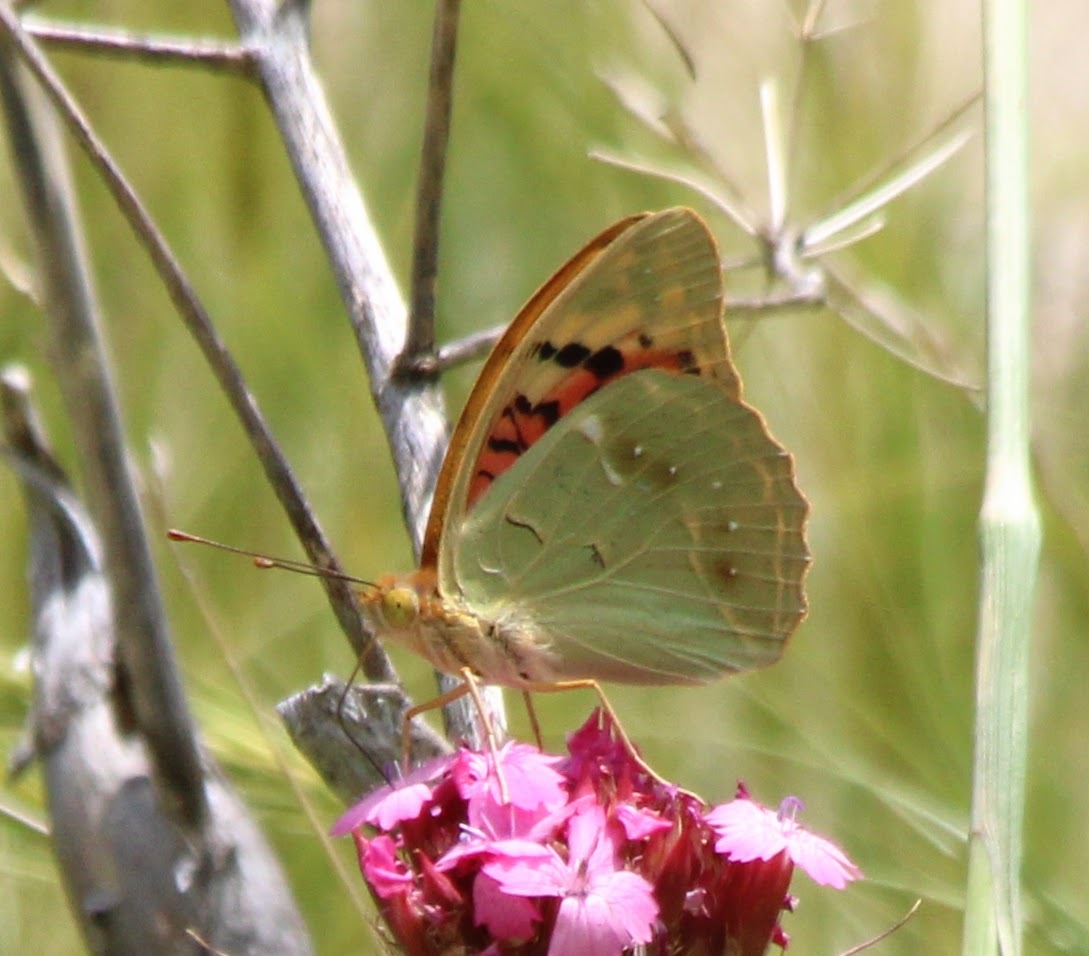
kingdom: Animalia
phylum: Arthropoda
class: Insecta
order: Lepidoptera
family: Nymphalidae
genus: Damora
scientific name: Damora pandora
